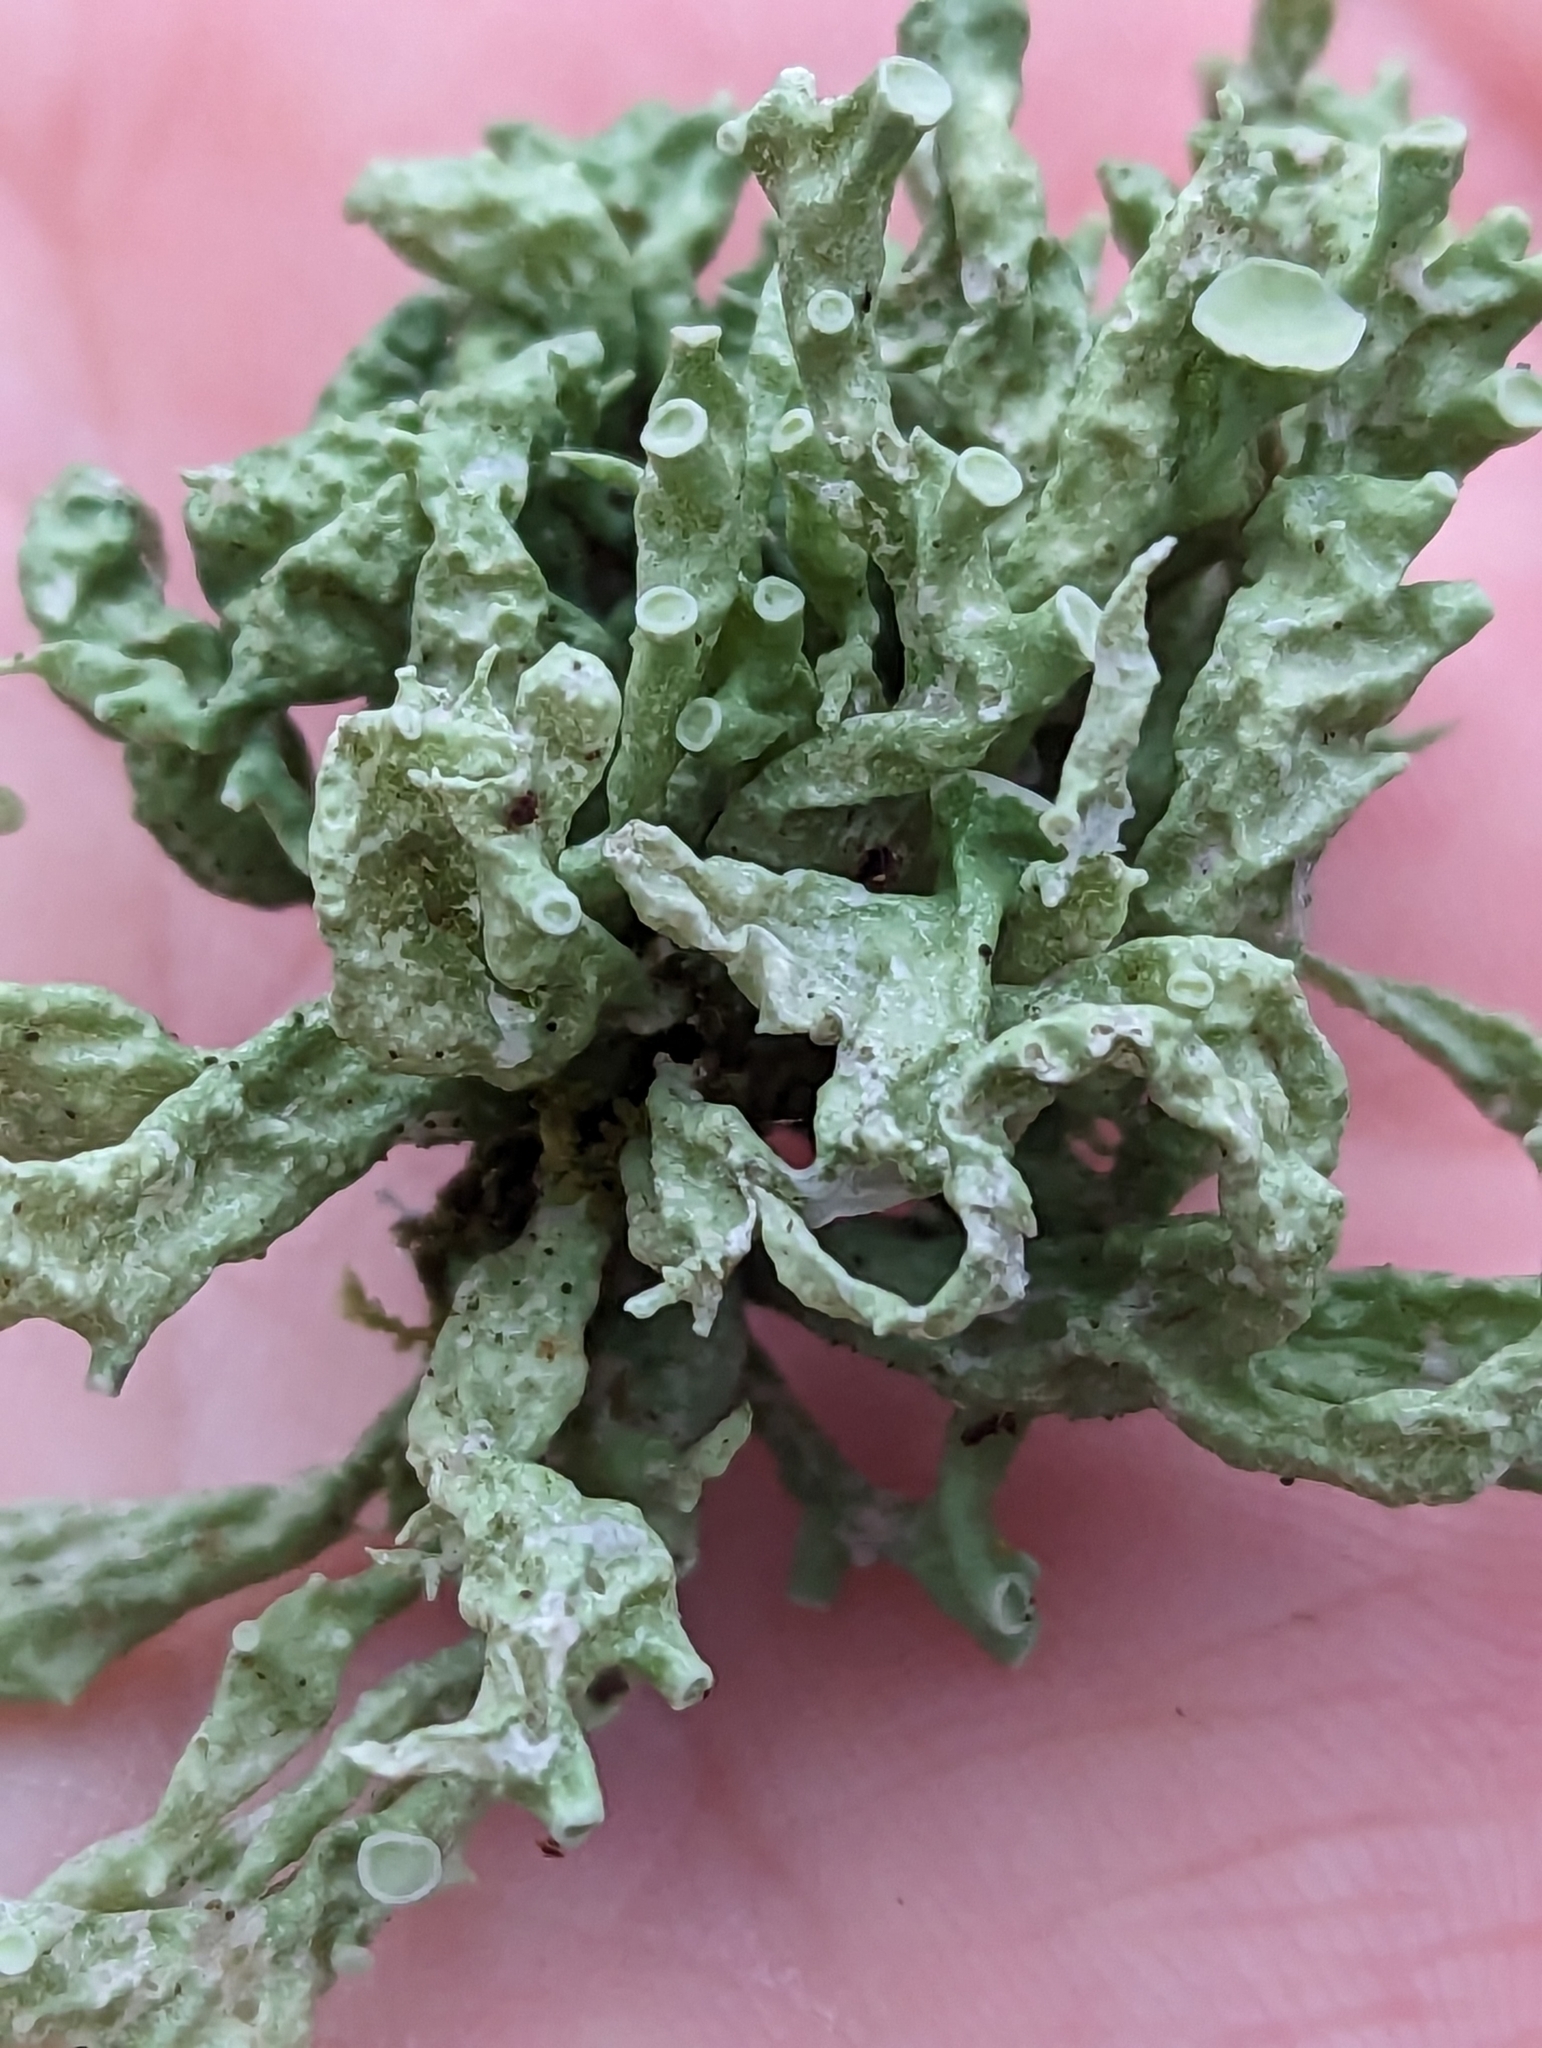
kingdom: Fungi
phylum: Ascomycota
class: Lecanoromycetes
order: Lecanorales
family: Ramalinaceae
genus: Ramalina
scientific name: Ramalina fastigiata
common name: Dotted ribbon lichen
